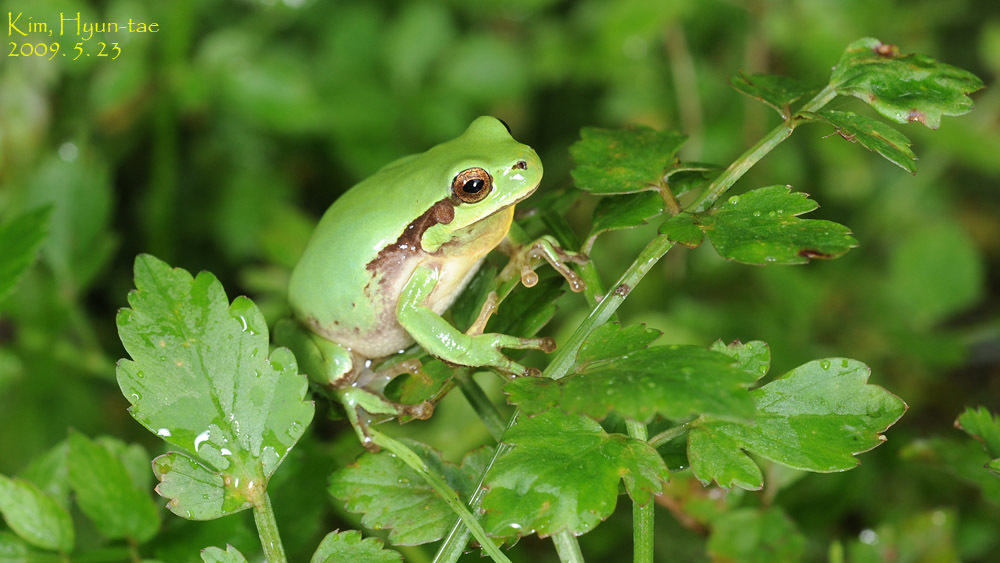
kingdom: Animalia
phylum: Chordata
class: Amphibia
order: Anura
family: Hylidae
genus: Dryophytes
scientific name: Dryophytes immaculatus
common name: North china treefrog
